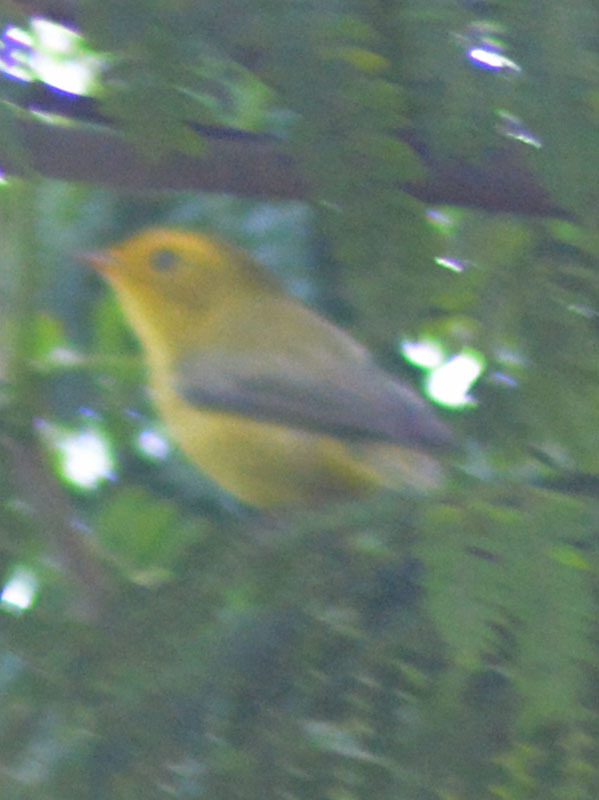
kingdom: Animalia
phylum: Chordata
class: Aves
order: Passeriformes
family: Parulidae
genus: Cardellina
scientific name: Cardellina pusilla
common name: Wilson's warbler
